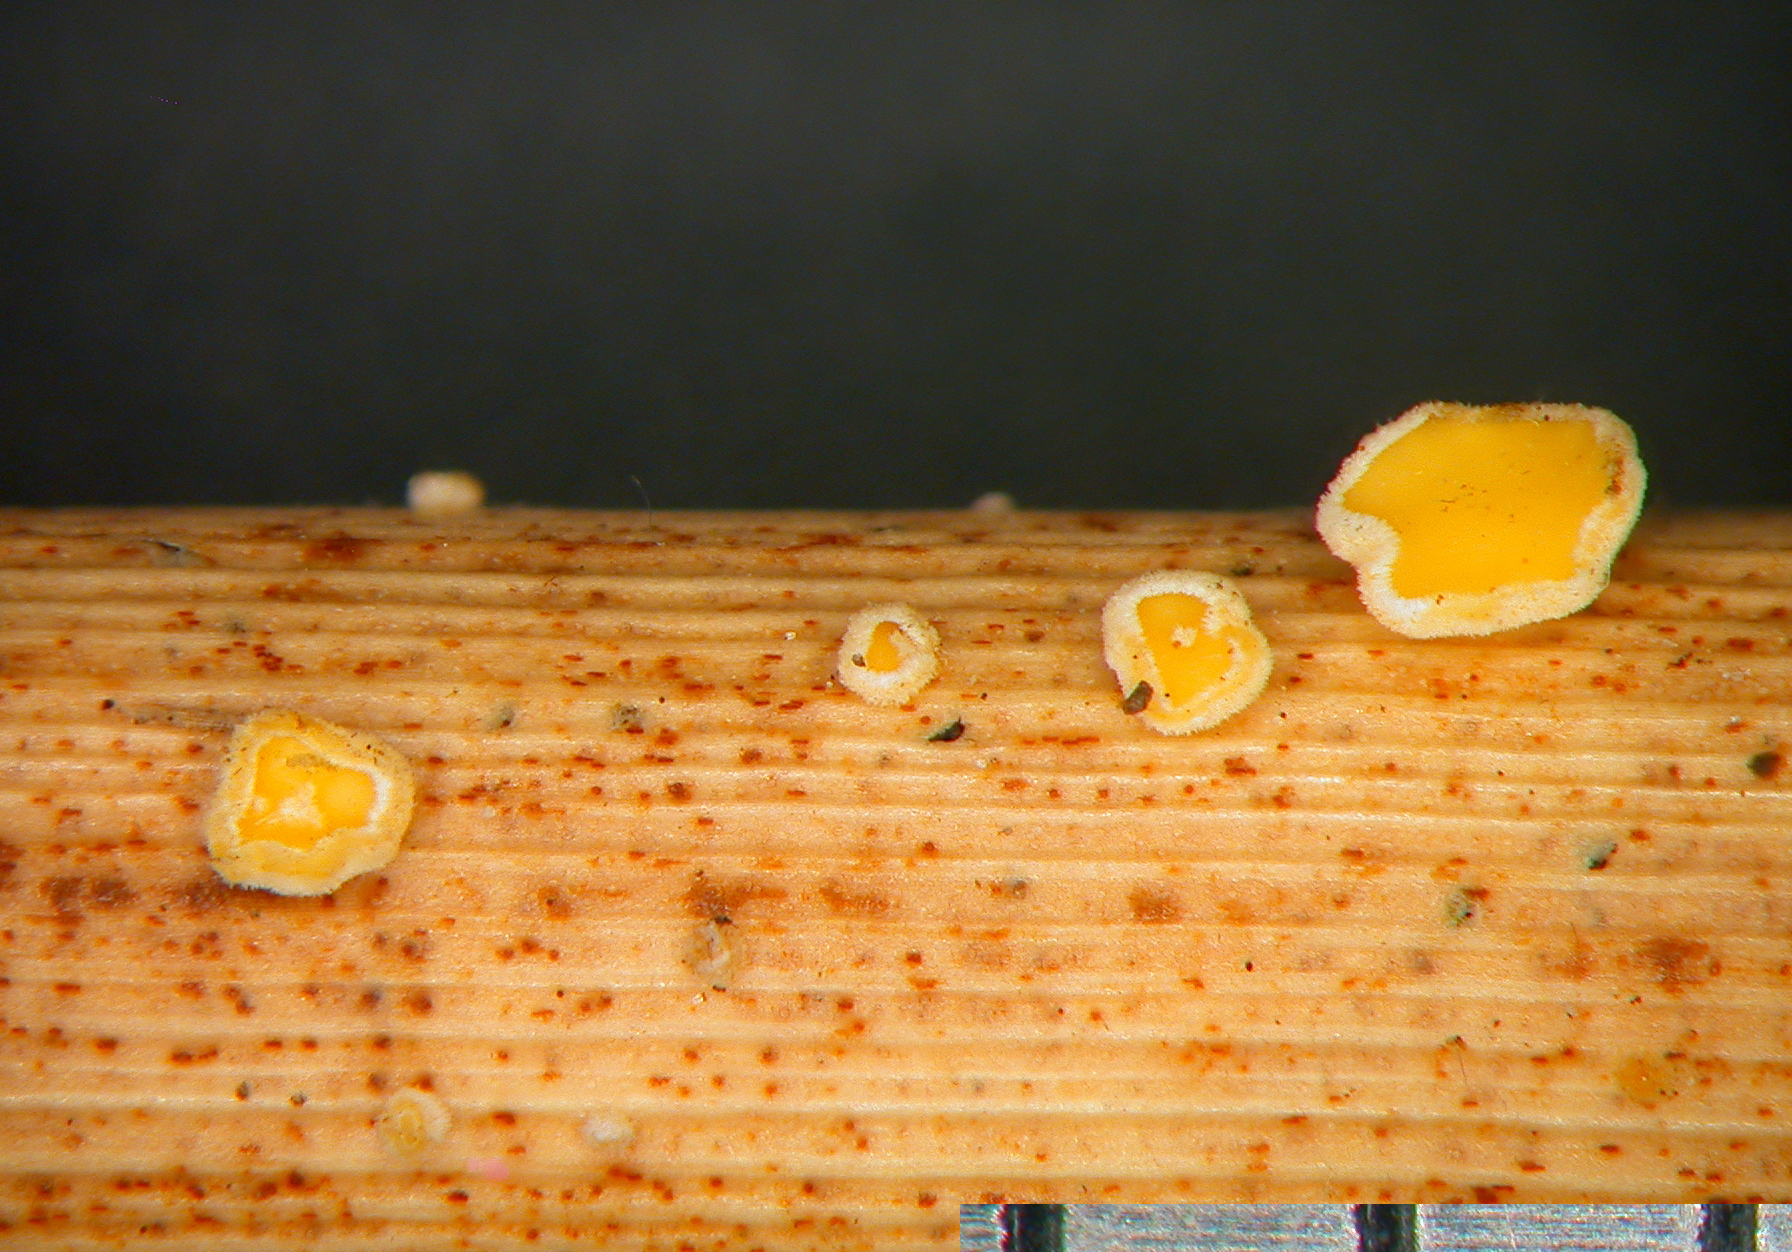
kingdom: Fungi
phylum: Ascomycota
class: Leotiomycetes
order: Helotiales
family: Lachnaceae
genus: Lachnum
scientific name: Lachnum apalum
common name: Rush disco
